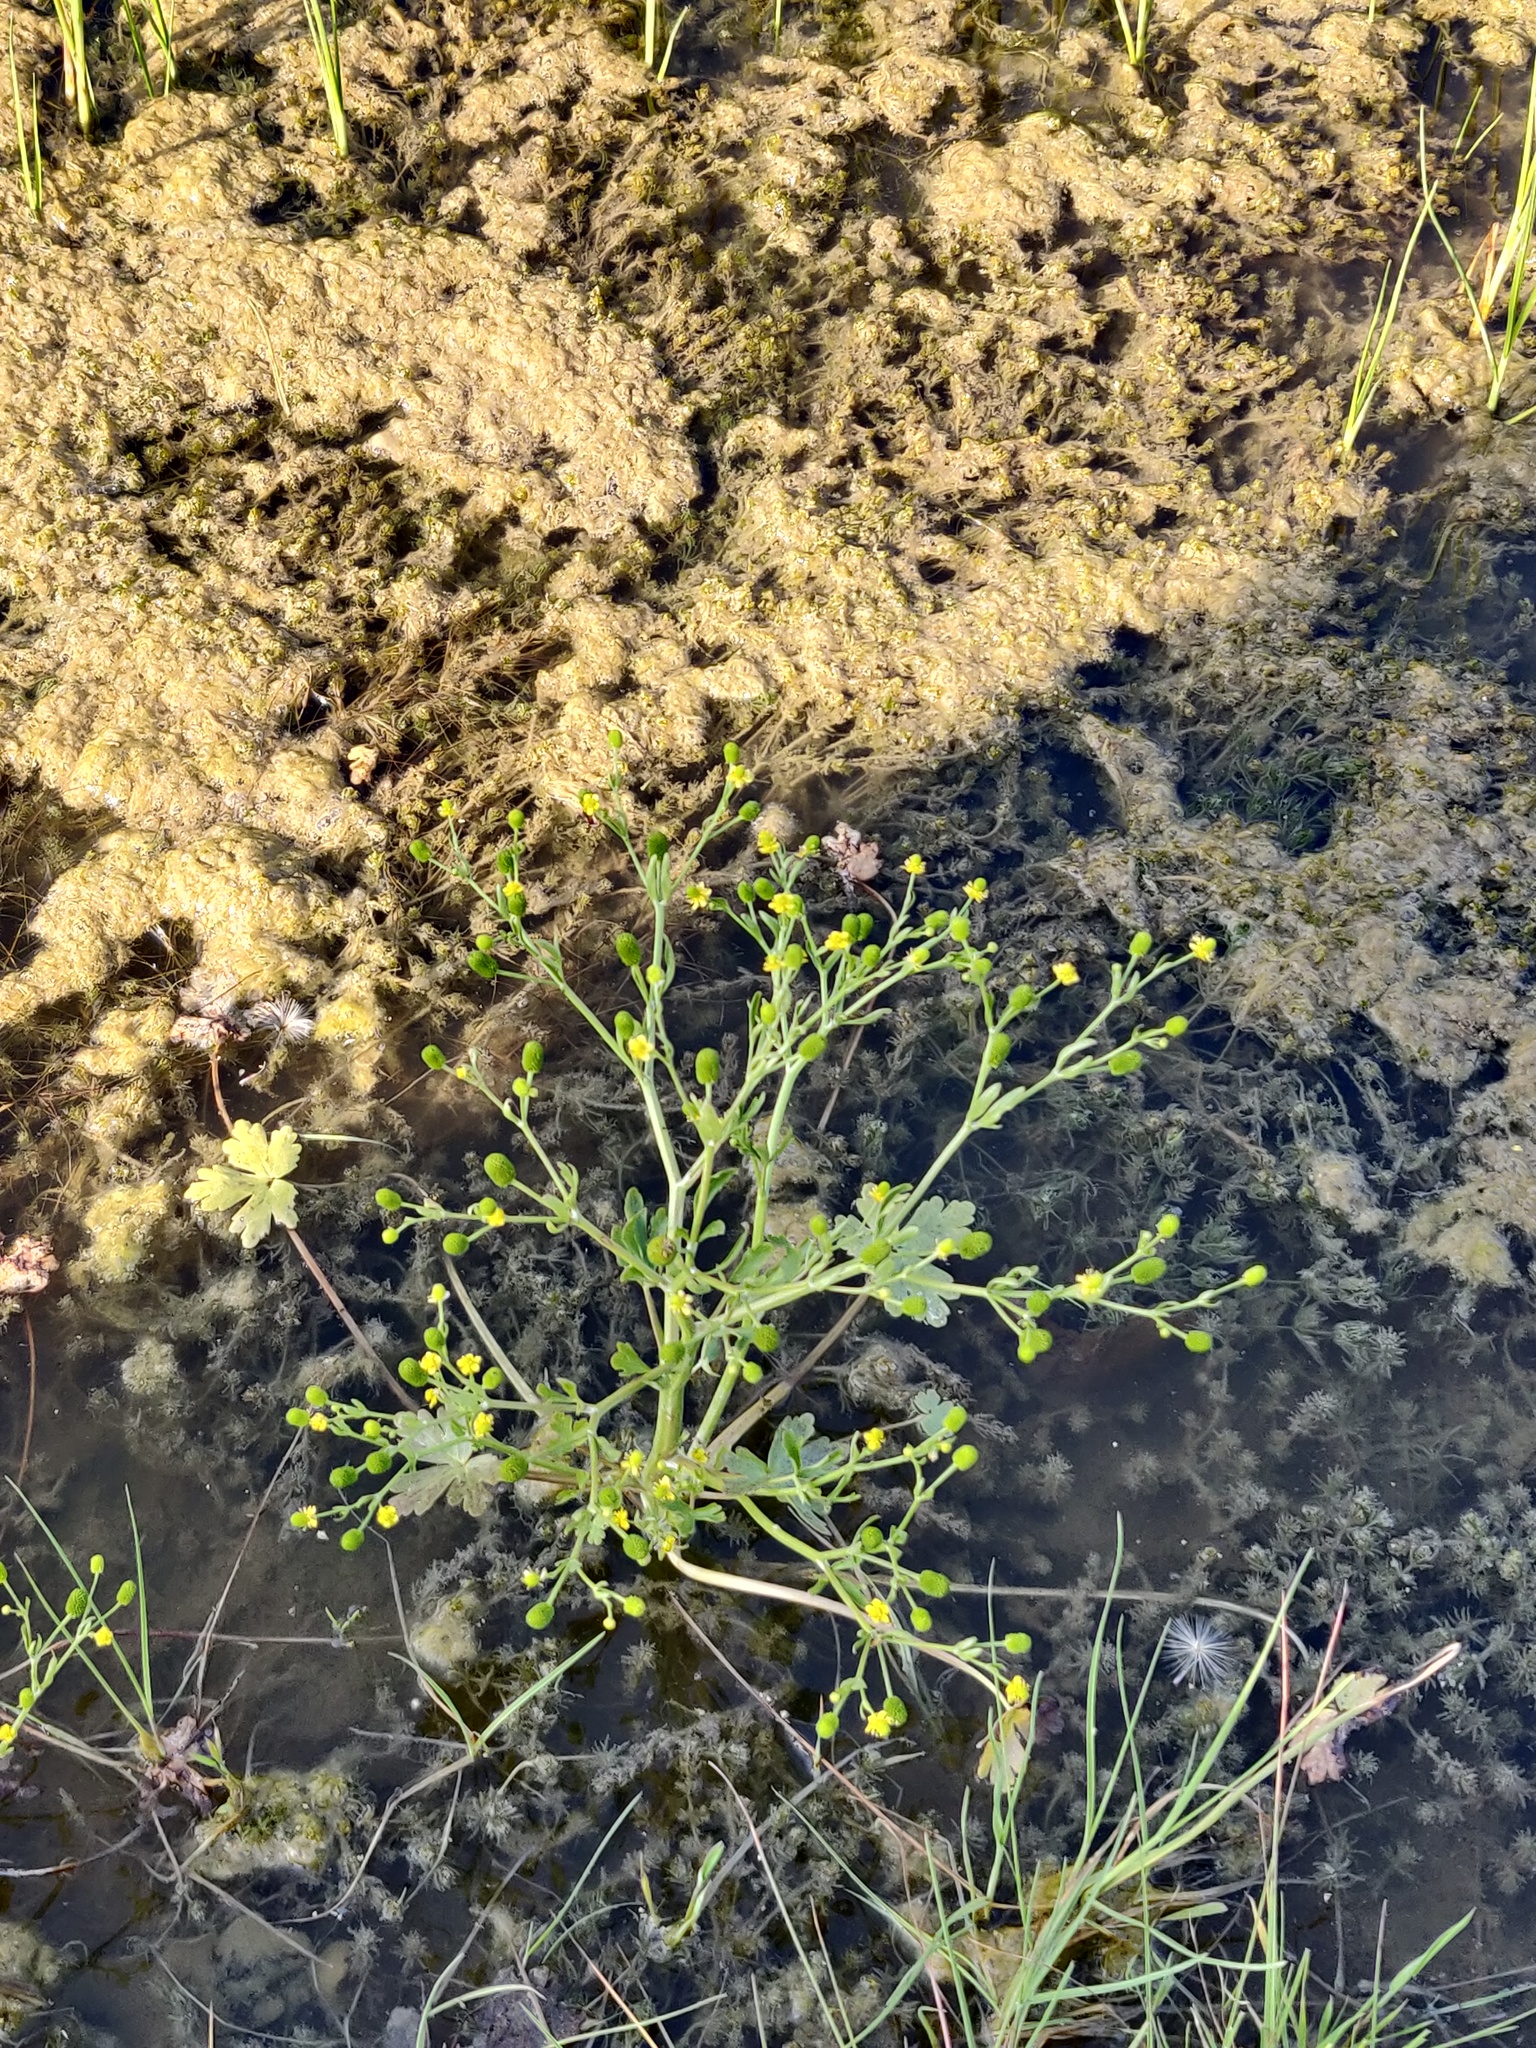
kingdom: Plantae
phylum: Tracheophyta
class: Magnoliopsida
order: Ranunculales
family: Ranunculaceae
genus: Ranunculus
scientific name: Ranunculus sceleratus
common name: Celery-leaved buttercup
